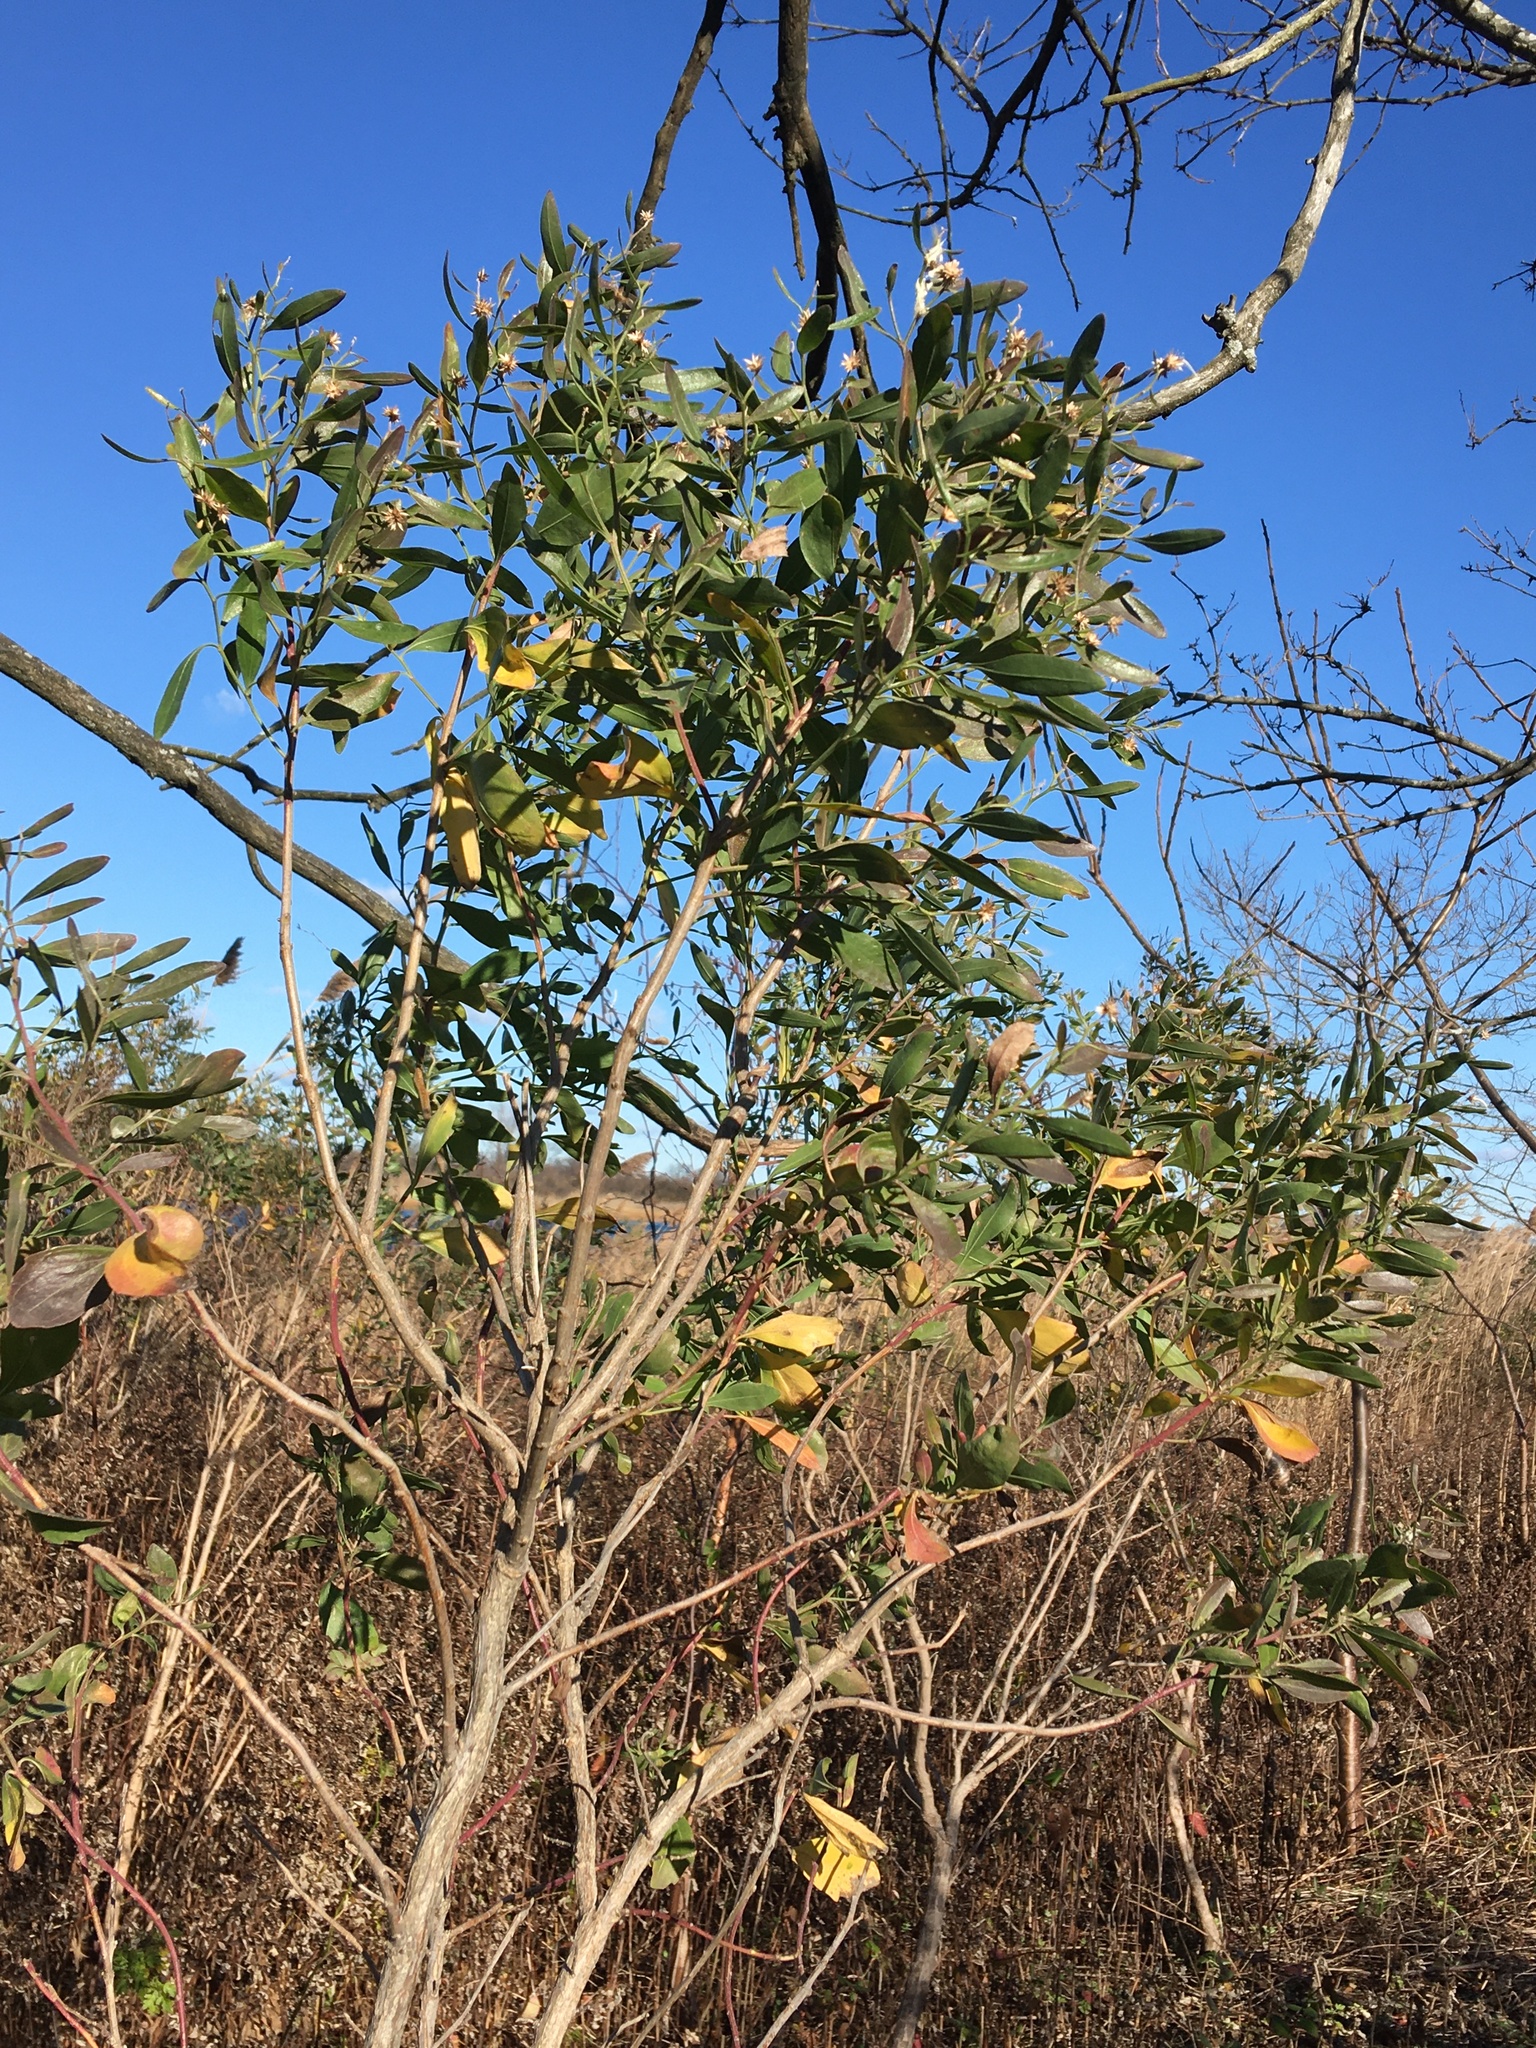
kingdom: Plantae
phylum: Tracheophyta
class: Magnoliopsida
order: Asterales
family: Asteraceae
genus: Baccharis
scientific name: Baccharis halimifolia
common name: Eastern baccharis
